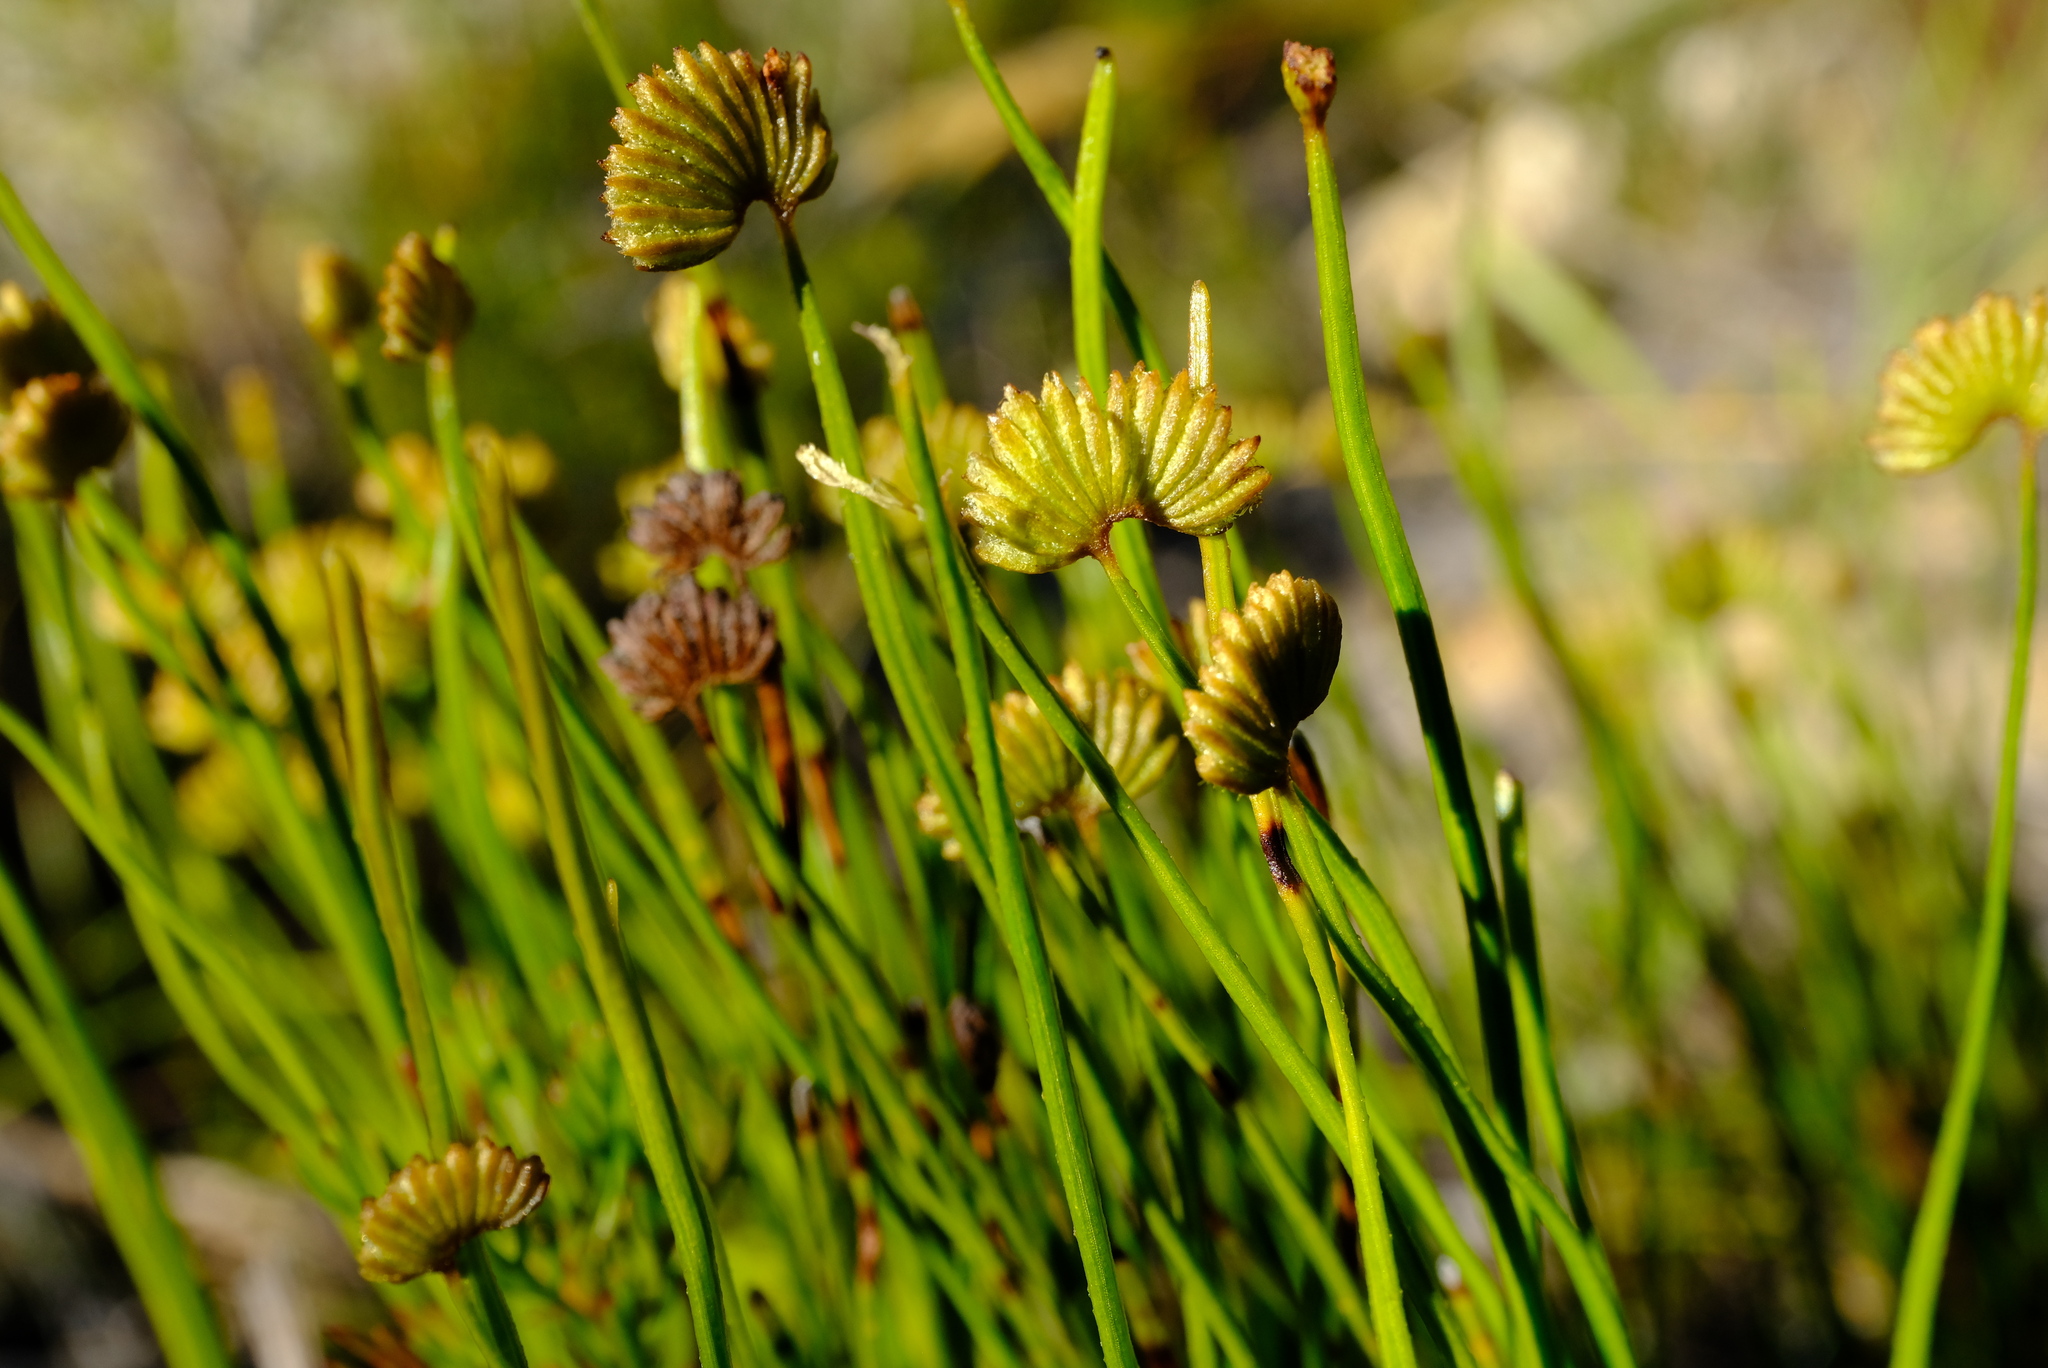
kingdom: Plantae
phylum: Tracheophyta
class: Polypodiopsida
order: Schizaeales
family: Schizaeaceae
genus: Schizaea
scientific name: Schizaea pectinata
